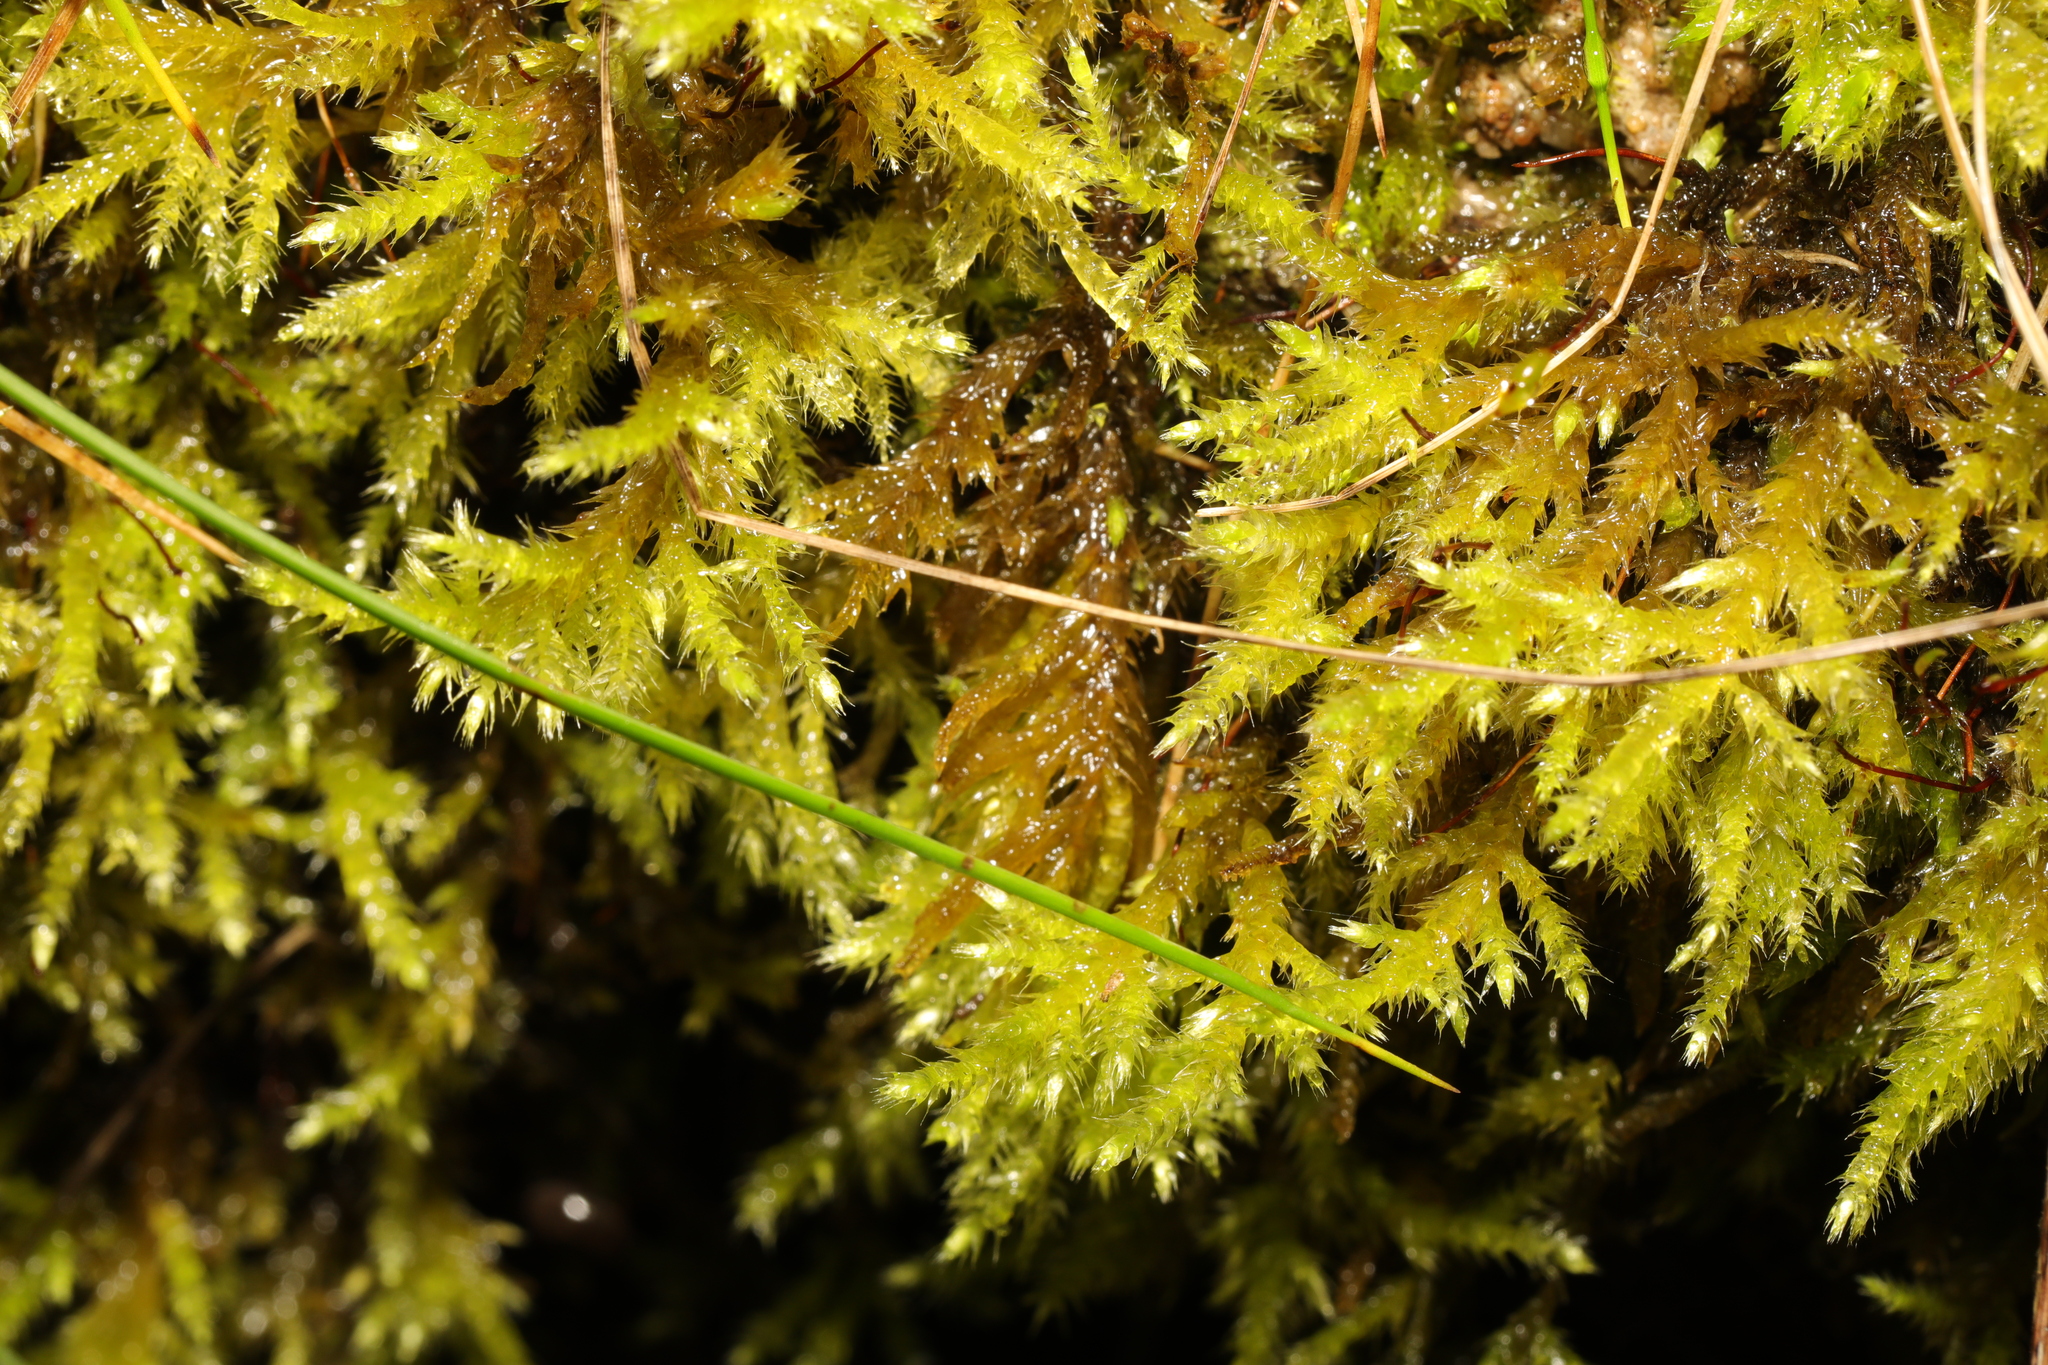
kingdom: Plantae
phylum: Bryophyta
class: Bryopsida
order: Hypnales
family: Brachytheciaceae
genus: Brachythecium
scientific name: Brachythecium rutabulum
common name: Rough-stalked feather-moss
